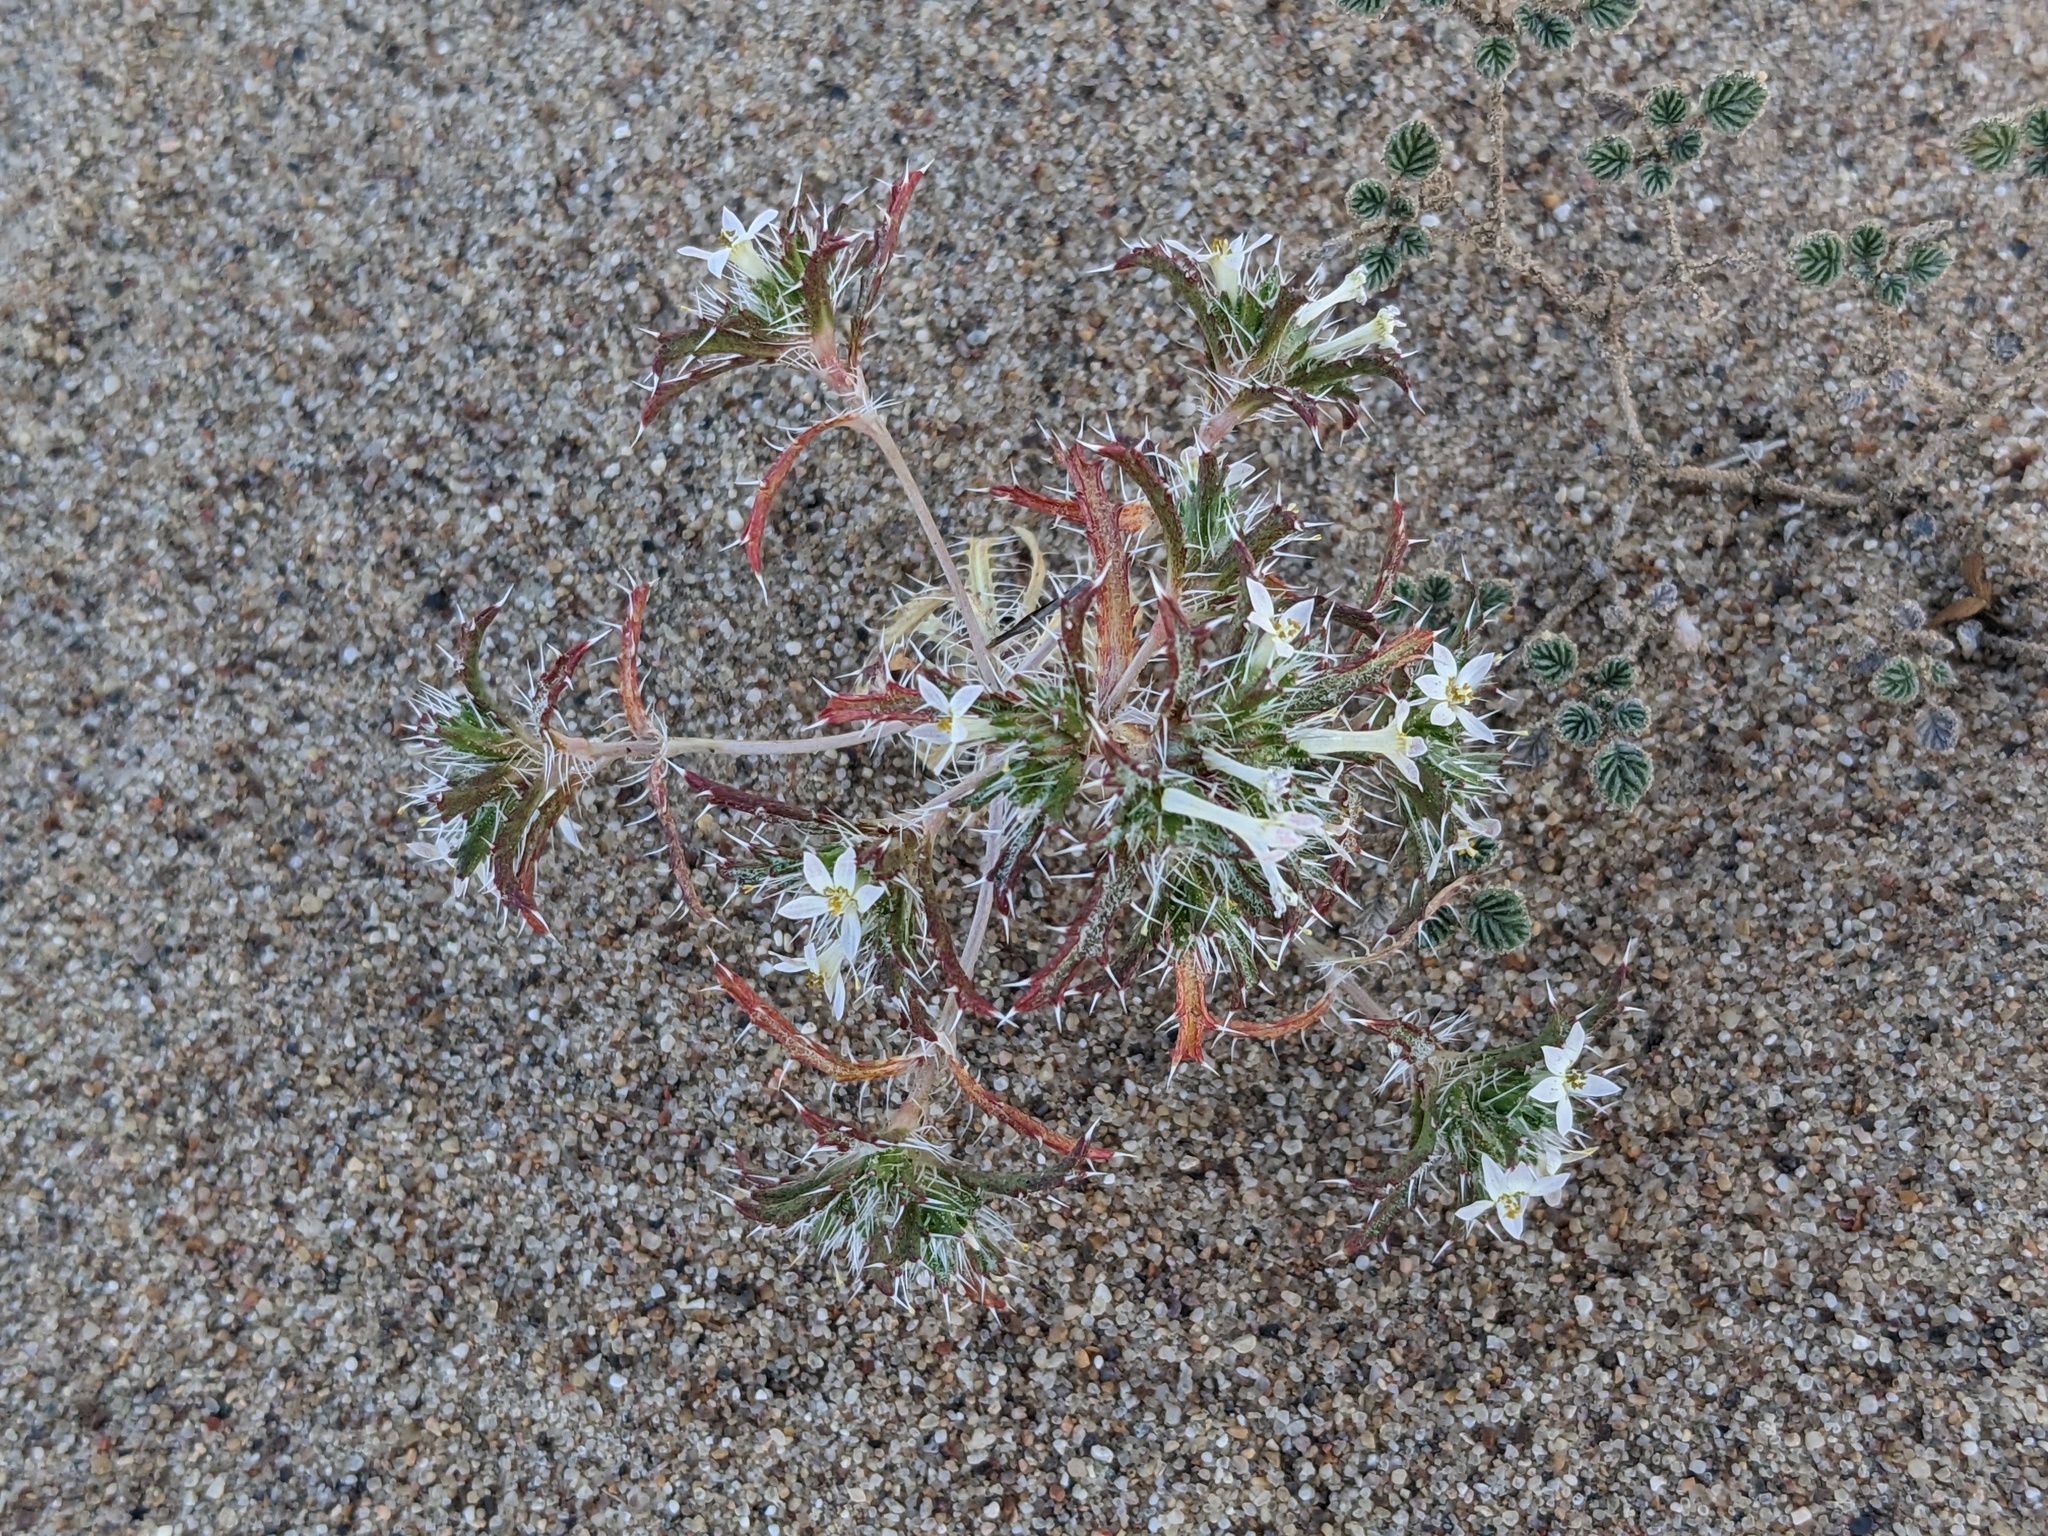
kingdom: Plantae
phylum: Tracheophyta
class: Magnoliopsida
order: Ericales
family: Polemoniaceae
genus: Loeseliastrum
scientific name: Loeseliastrum schottii
